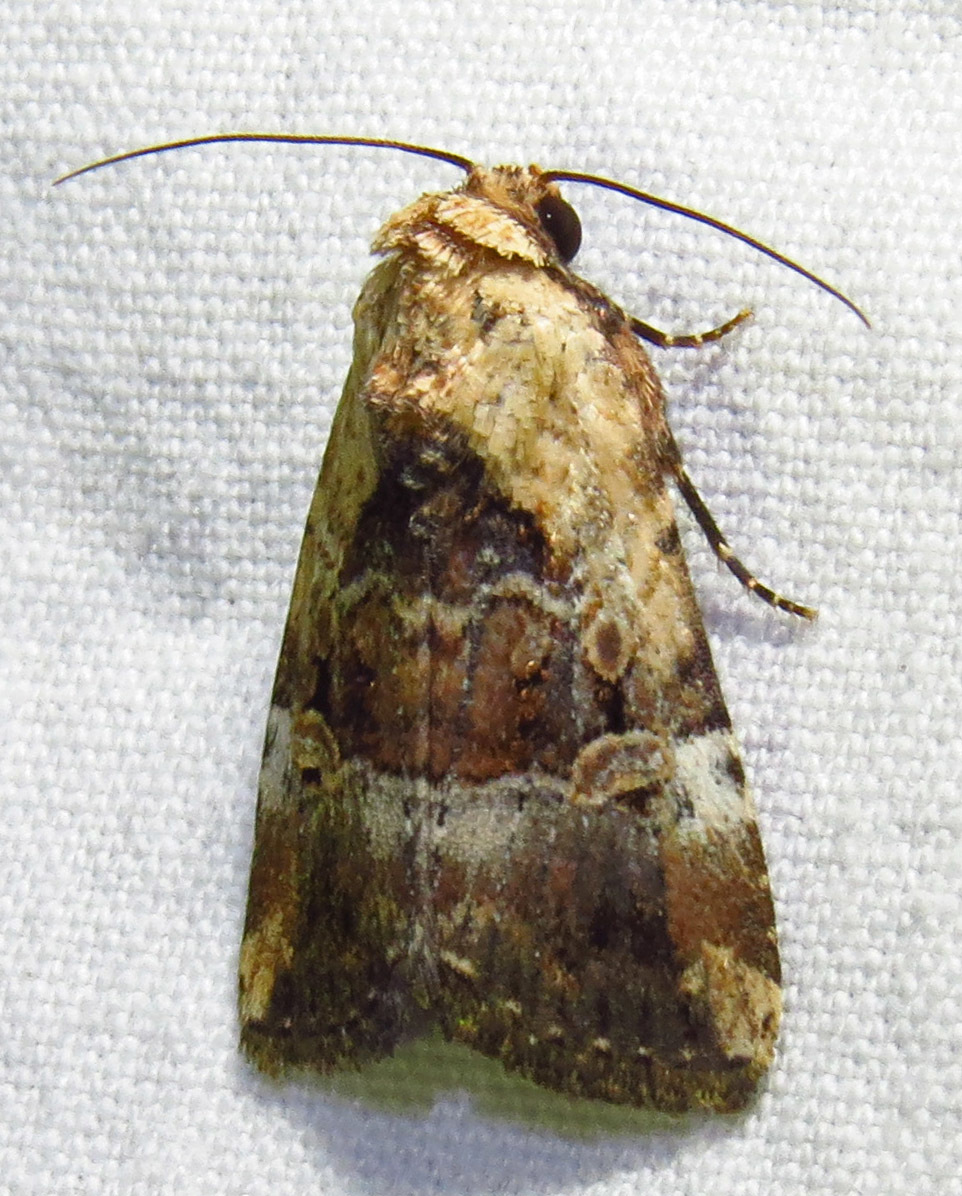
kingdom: Animalia
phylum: Arthropoda
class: Insecta
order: Lepidoptera
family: Noctuidae
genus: Elaphria
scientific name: Elaphria chalcedonia
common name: Chalcedony midget
